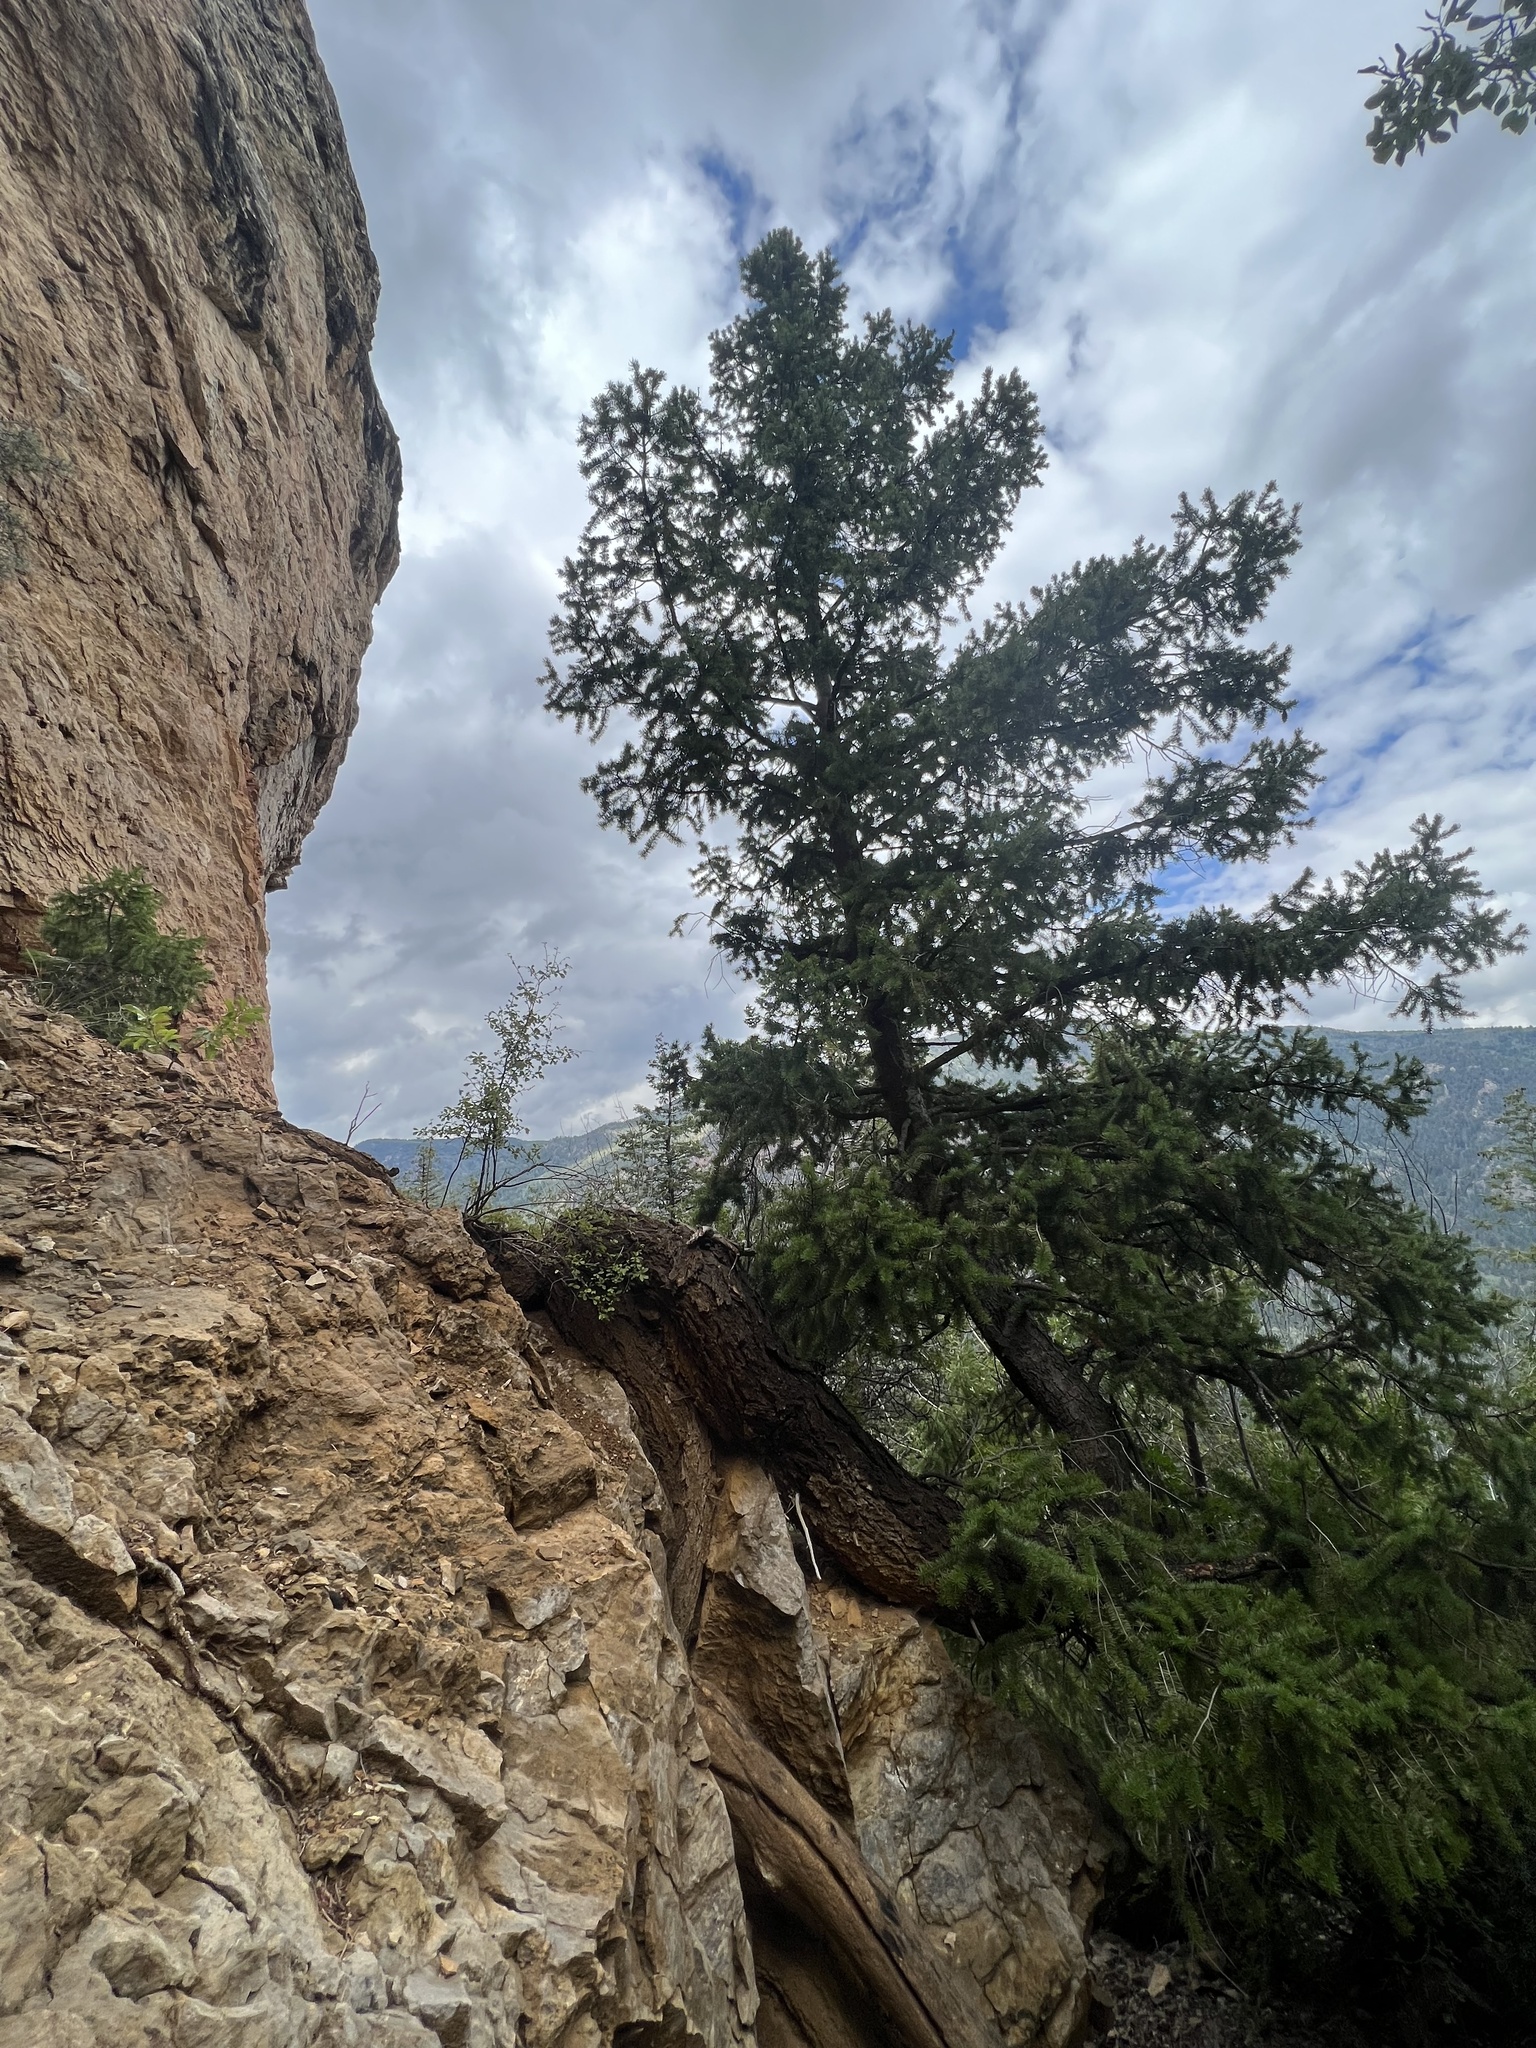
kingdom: Plantae
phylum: Tracheophyta
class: Pinopsida
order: Pinales
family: Pinaceae
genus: Pseudotsuga
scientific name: Pseudotsuga menziesii
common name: Douglas fir
